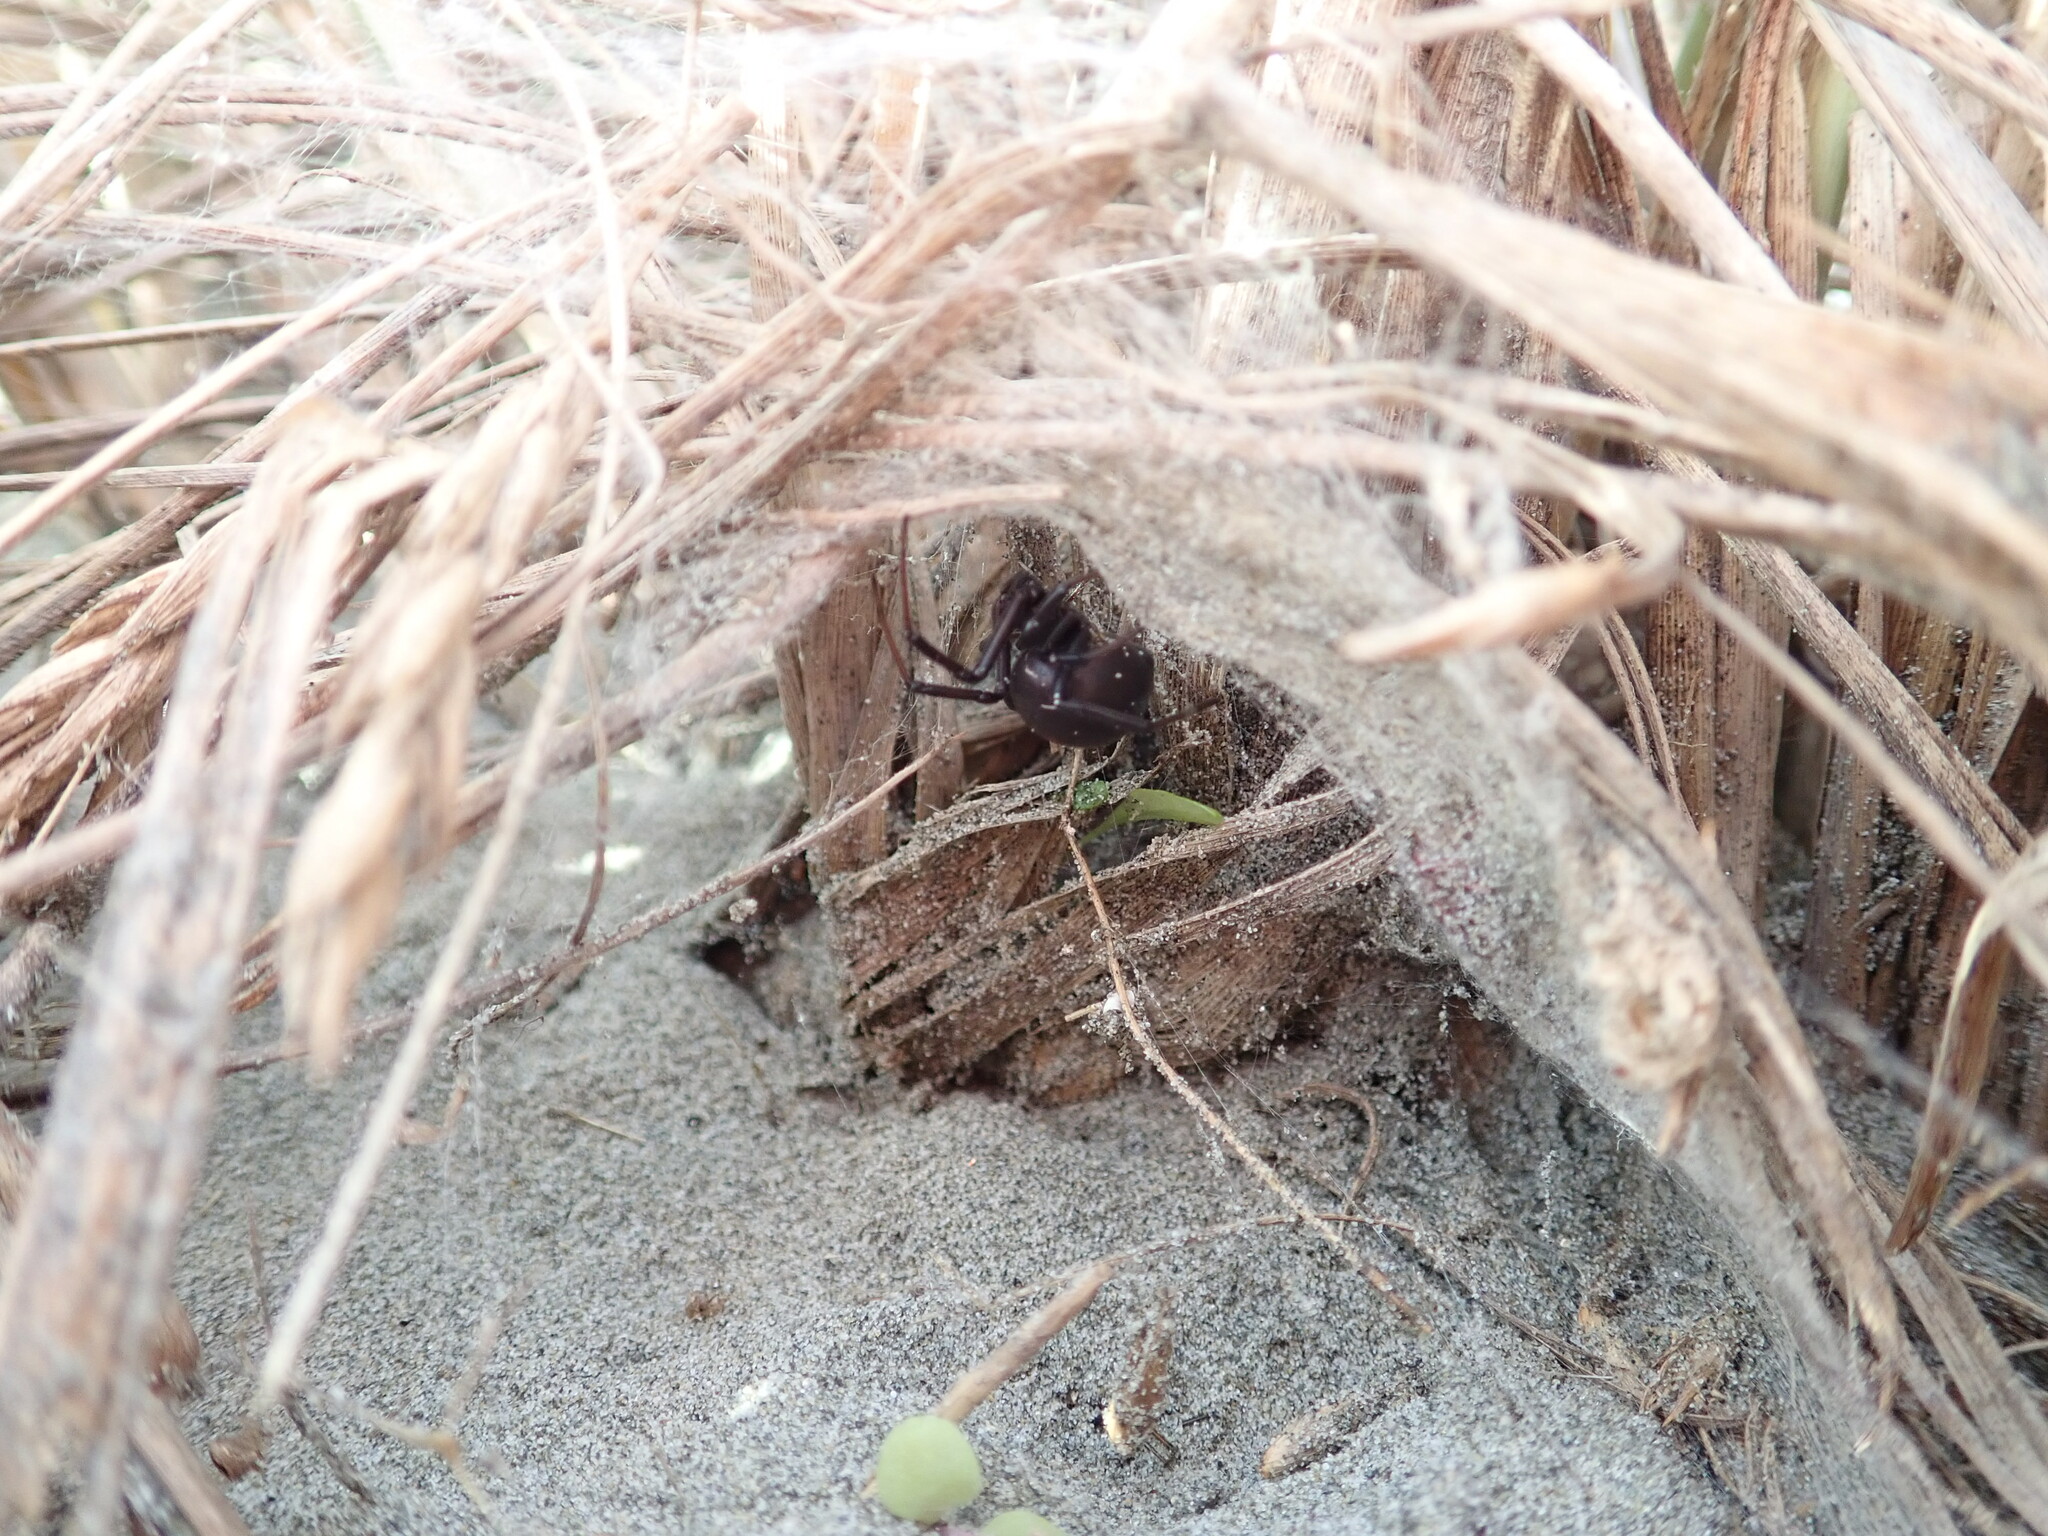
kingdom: Animalia
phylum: Arthropoda
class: Arachnida
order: Araneae
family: Theridiidae
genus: Latrodectus
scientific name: Latrodectus katipo
